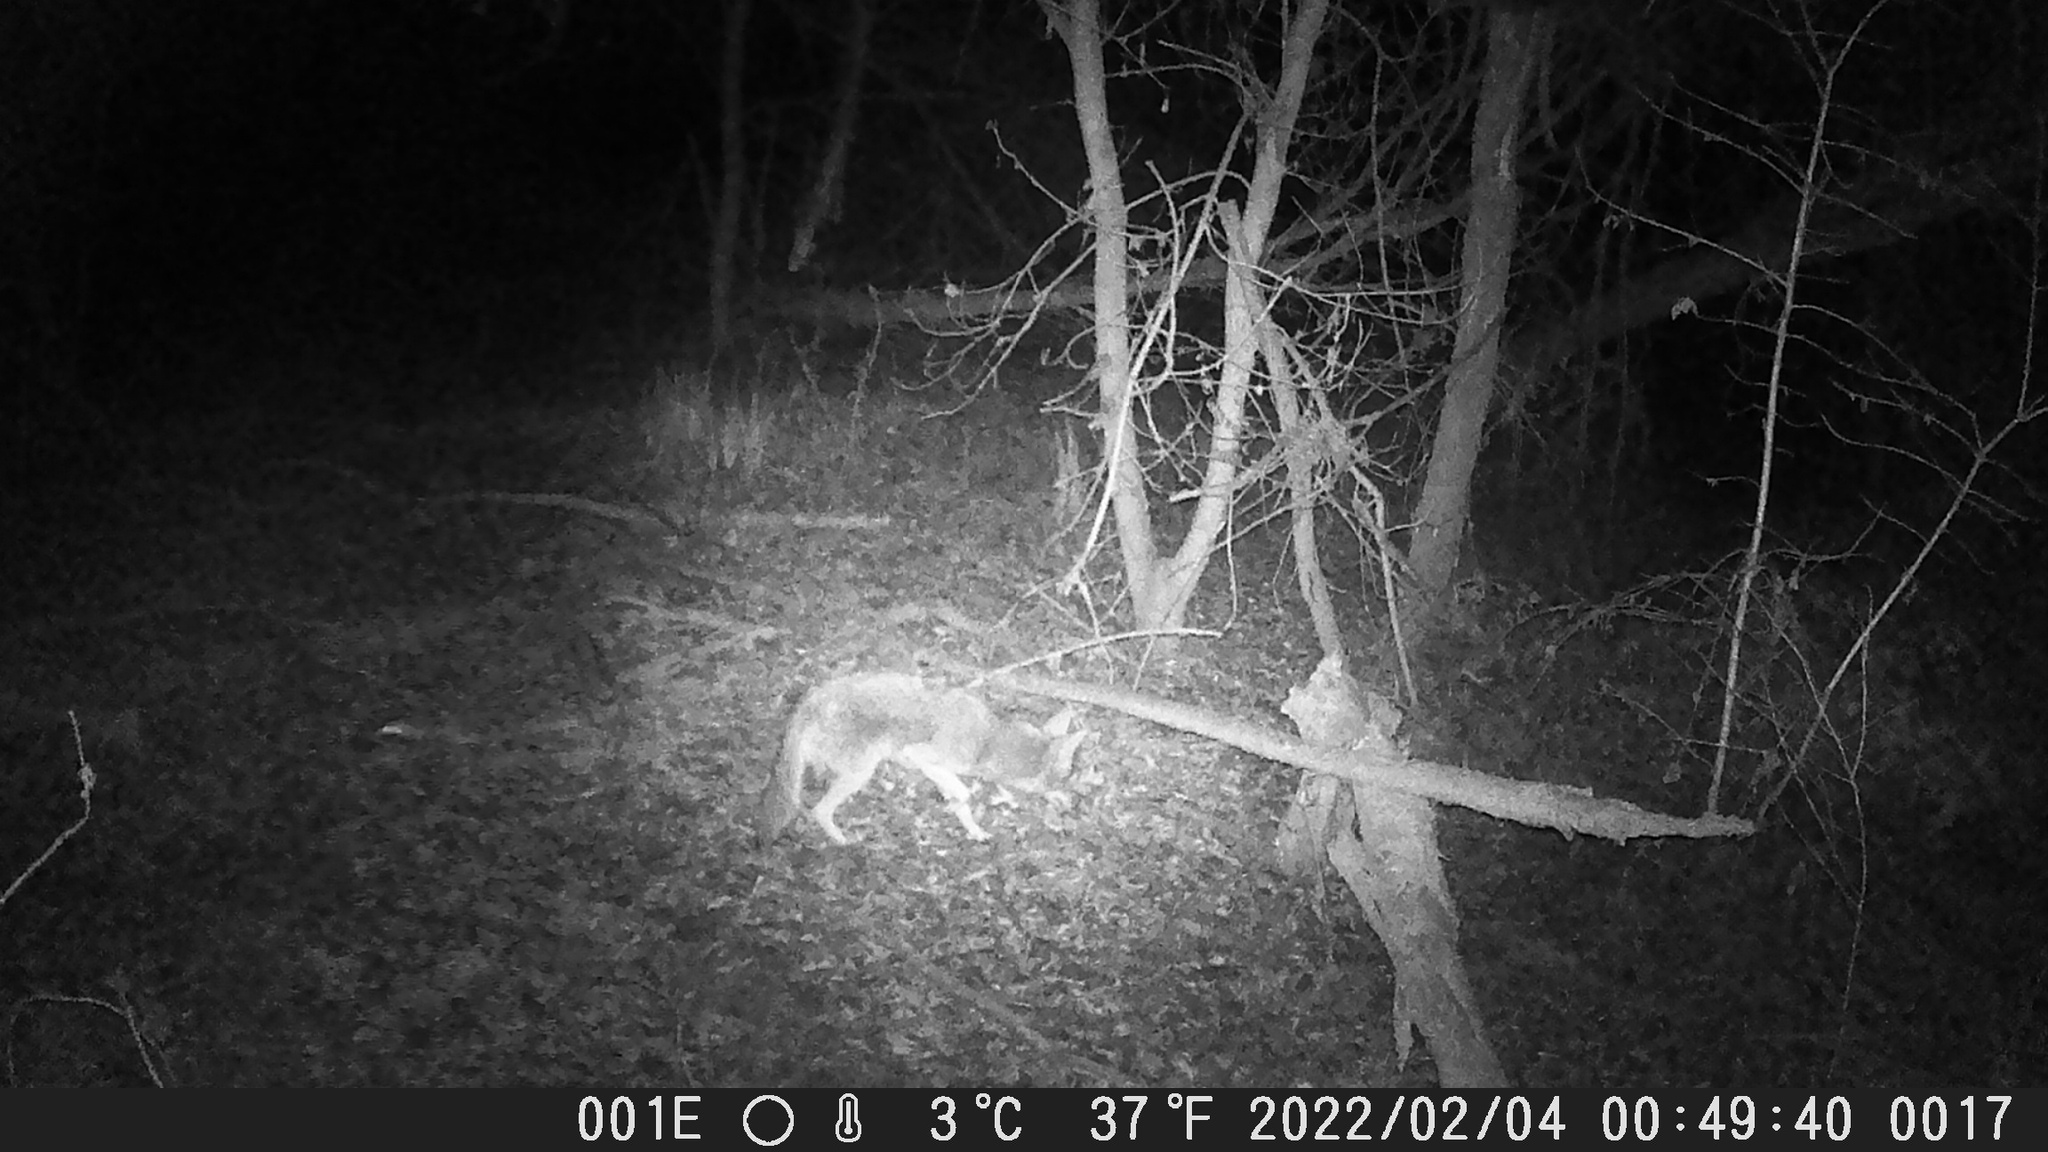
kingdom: Animalia
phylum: Chordata
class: Mammalia
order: Carnivora
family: Canidae
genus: Canis
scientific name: Canis latrans
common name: Coyote
